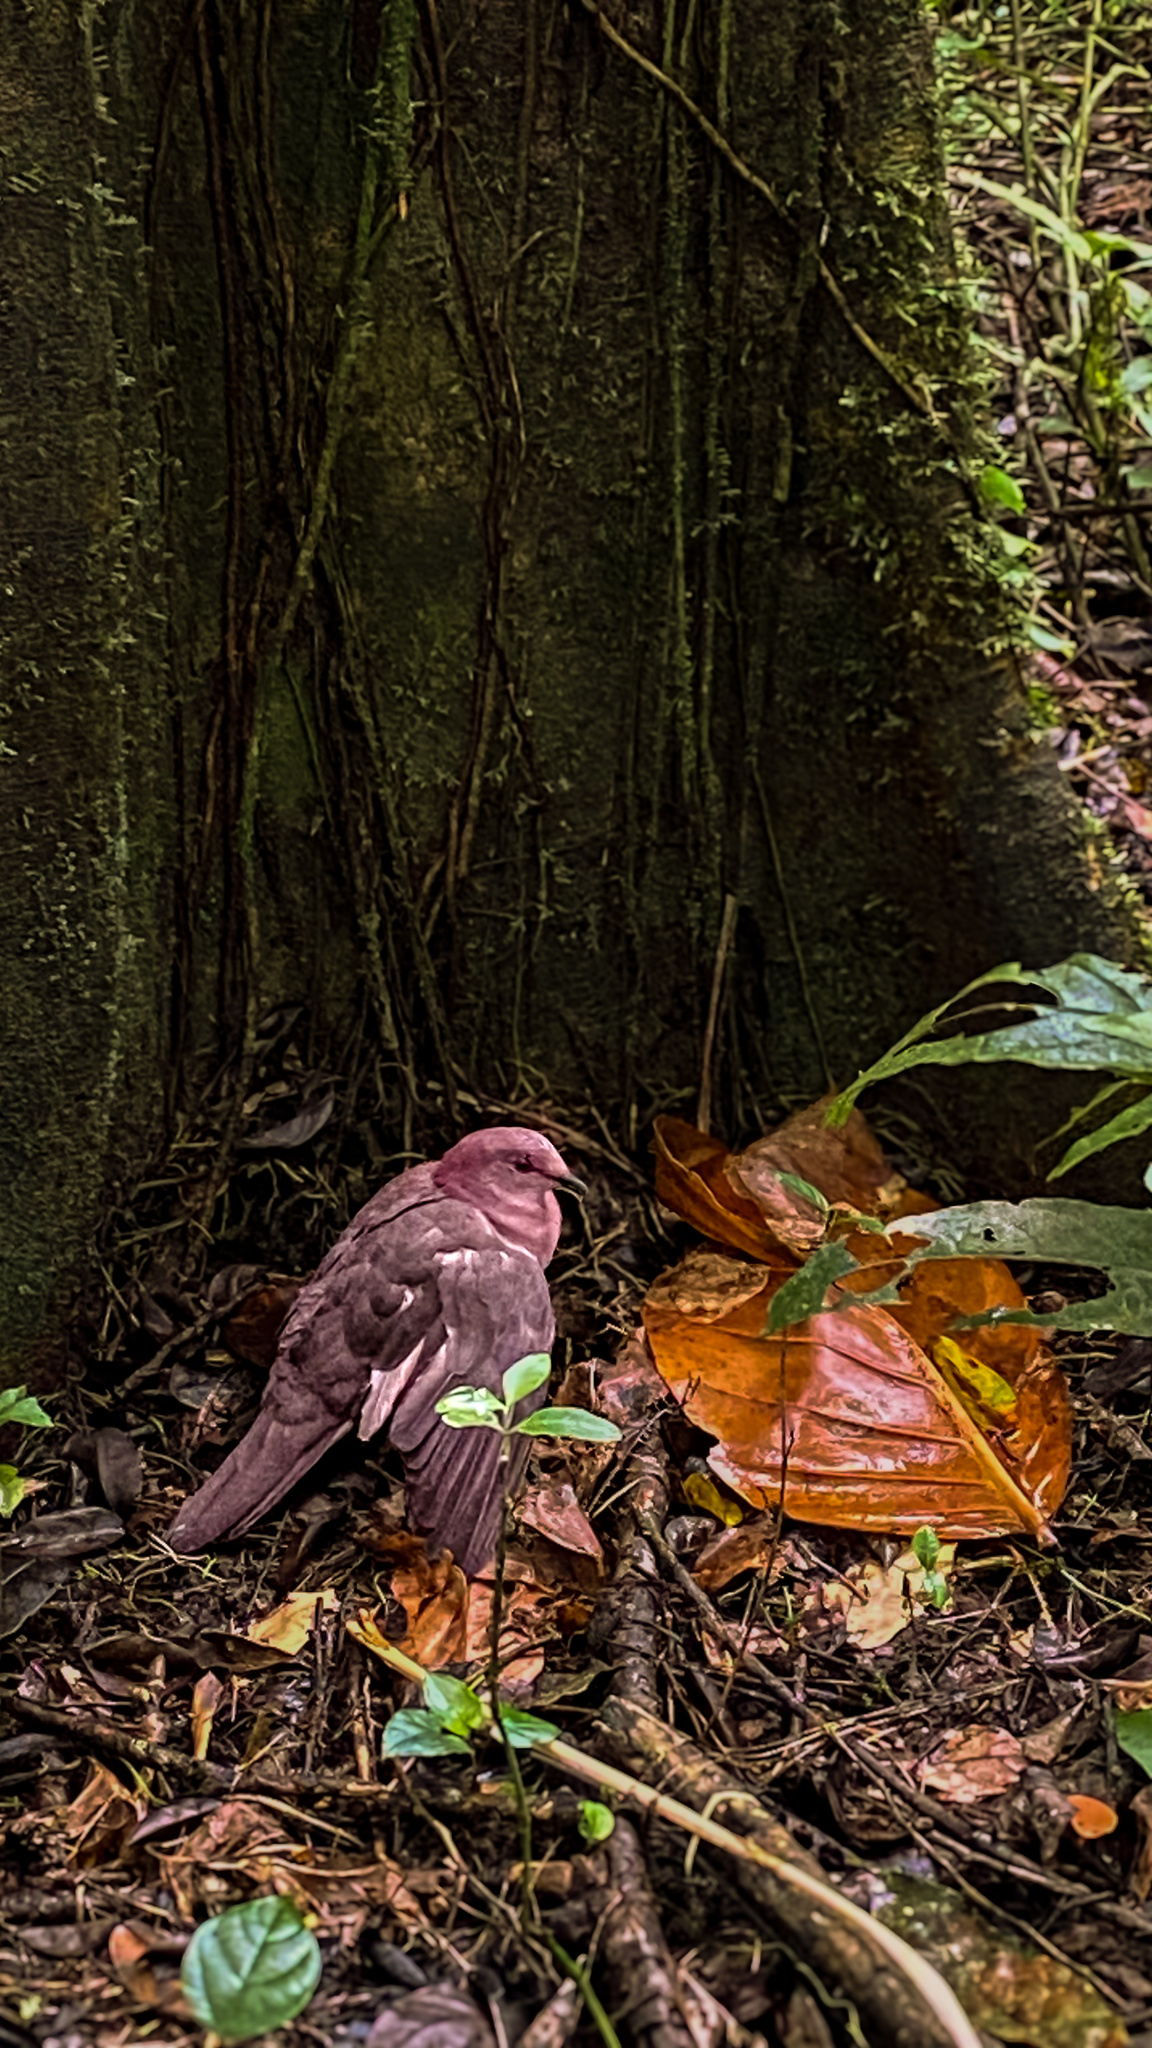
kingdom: Animalia
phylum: Chordata
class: Aves
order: Columbiformes
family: Columbidae
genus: Patagioenas
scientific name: Patagioenas nigrirostris
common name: Short-billed pigeon
